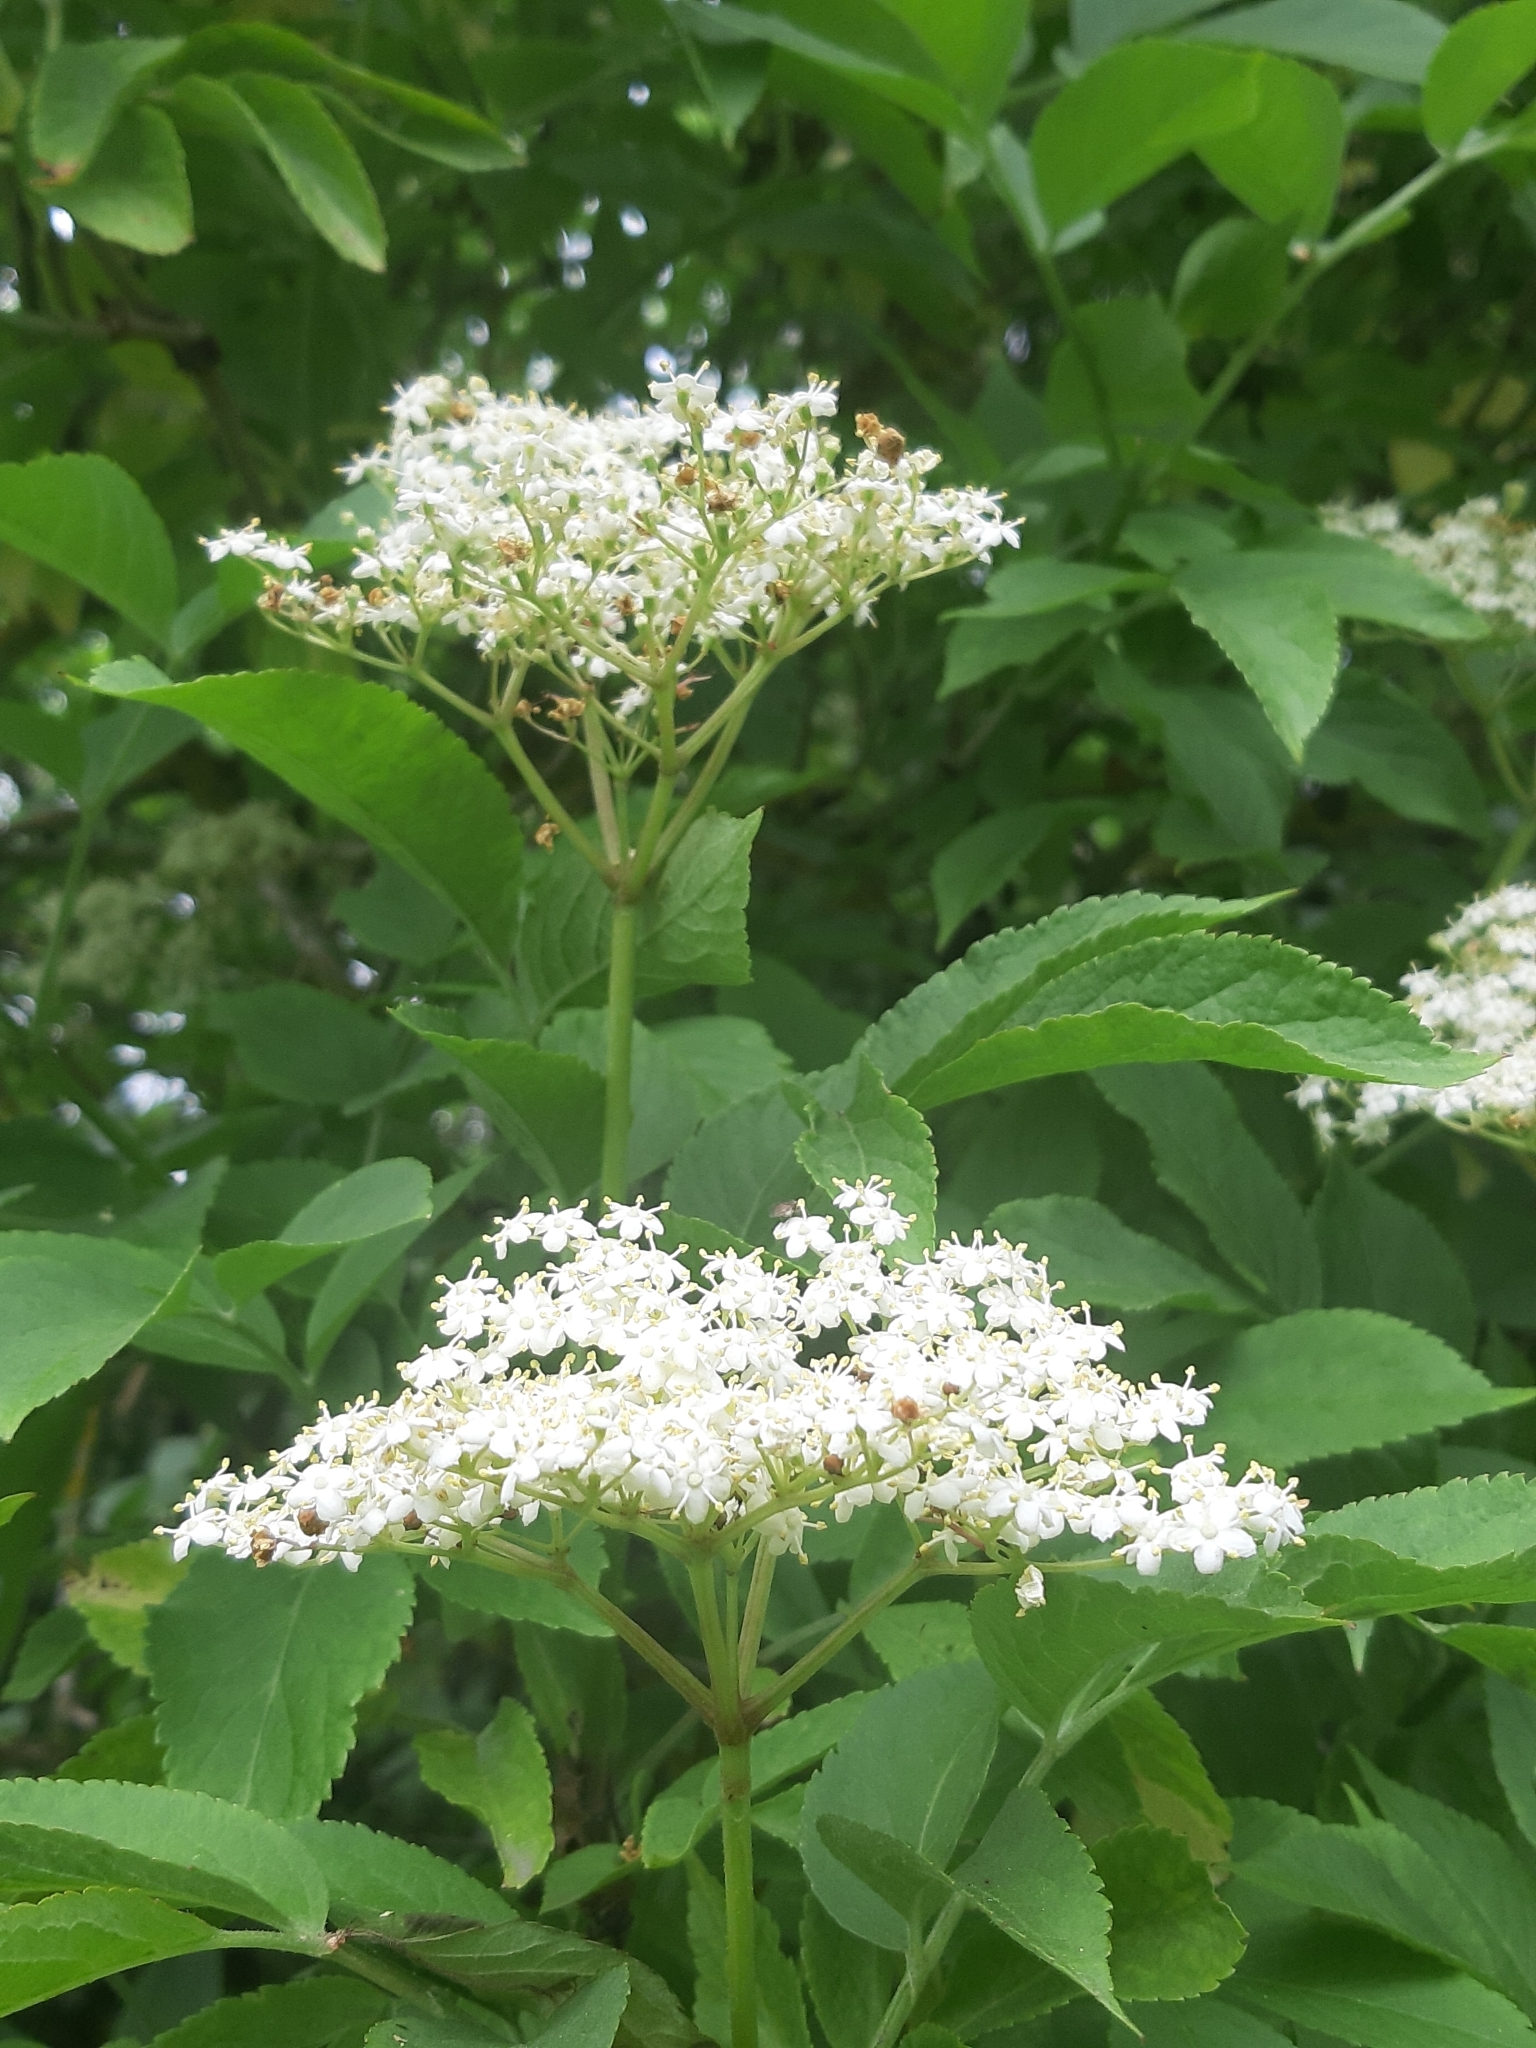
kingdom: Plantae
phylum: Tracheophyta
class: Magnoliopsida
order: Dipsacales
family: Viburnaceae
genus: Sambucus
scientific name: Sambucus nigra
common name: Elder
